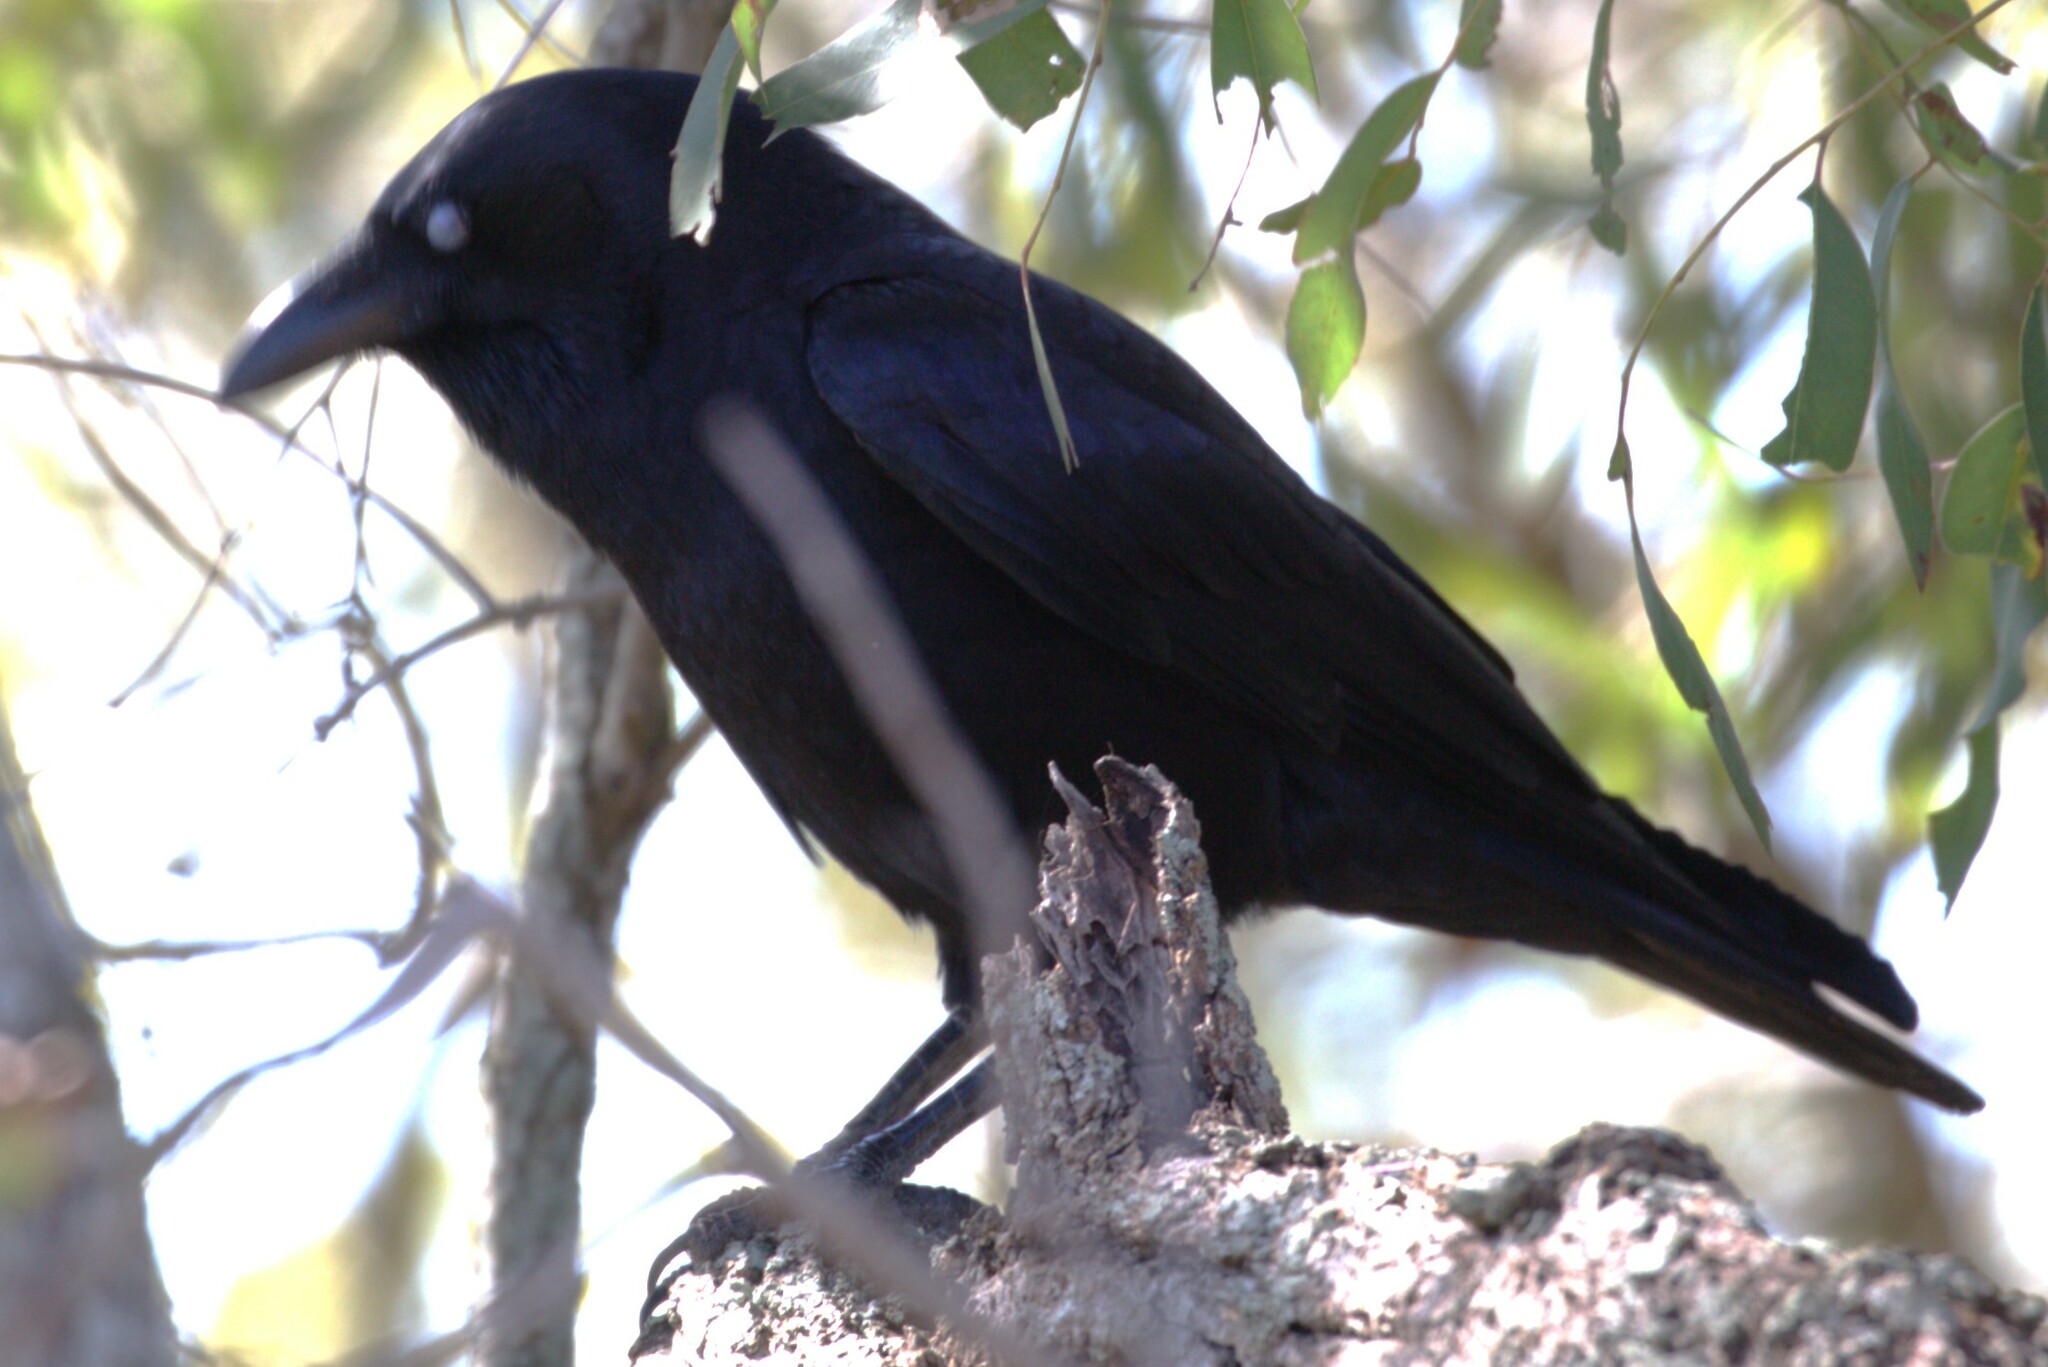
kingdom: Animalia
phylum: Chordata
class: Aves
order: Passeriformes
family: Corvidae
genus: Corvus
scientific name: Corvus orru
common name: Torresian crow
